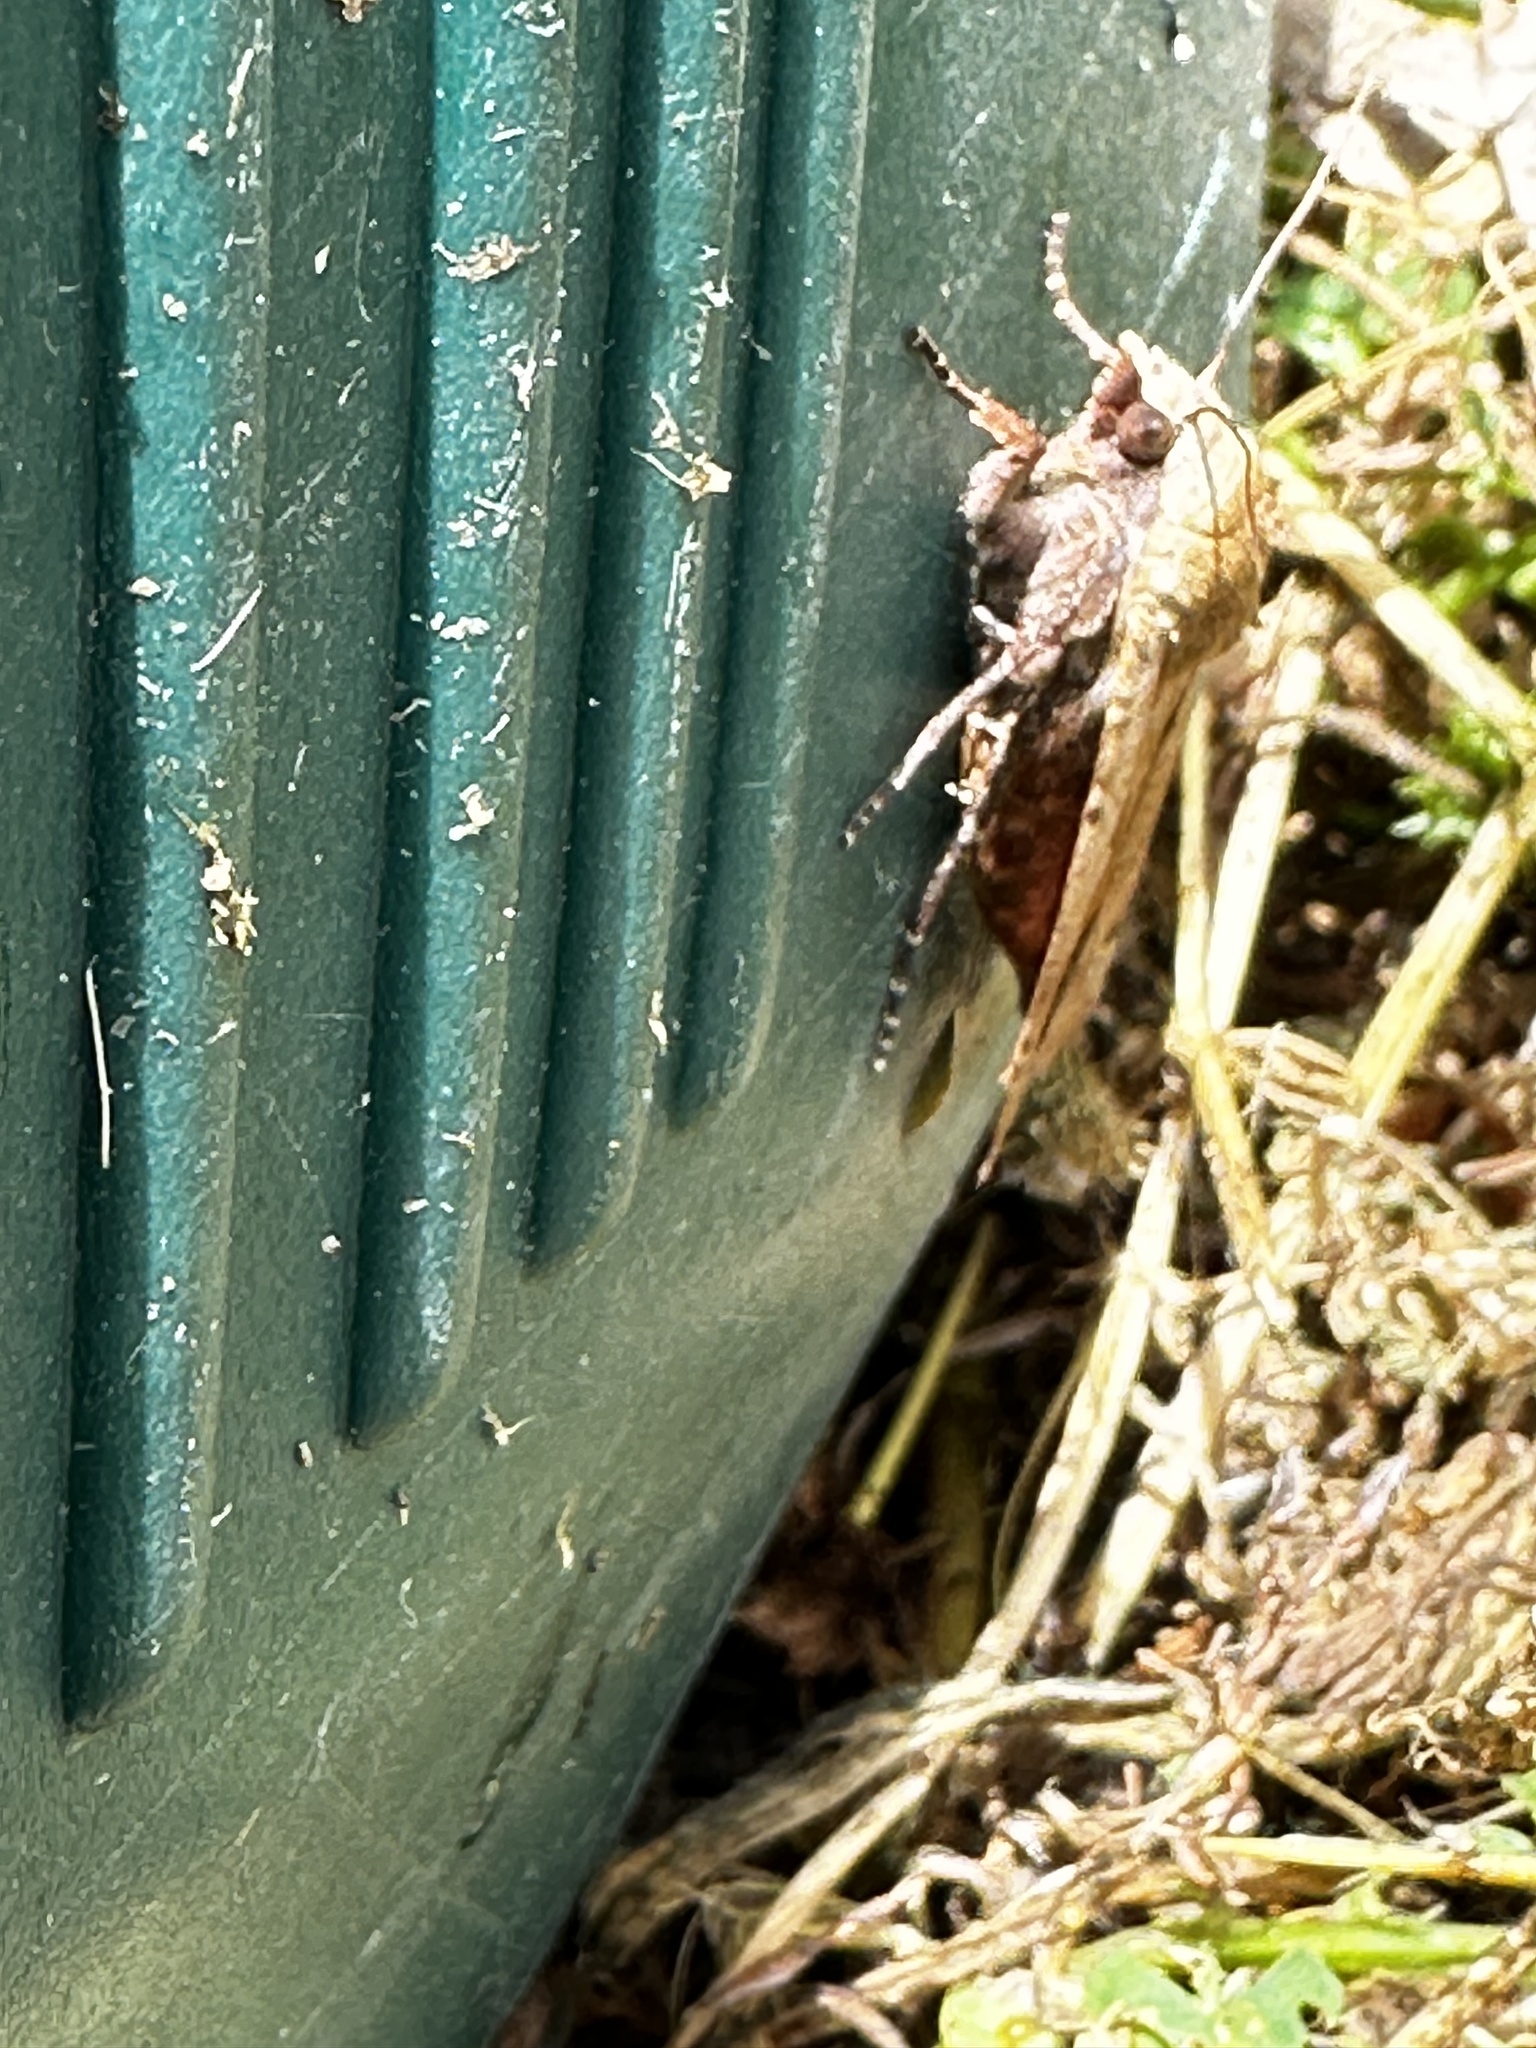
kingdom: Animalia
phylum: Arthropoda
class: Insecta
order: Lepidoptera
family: Noctuidae
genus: Noctua
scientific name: Noctua pronuba
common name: Large yellow underwing
